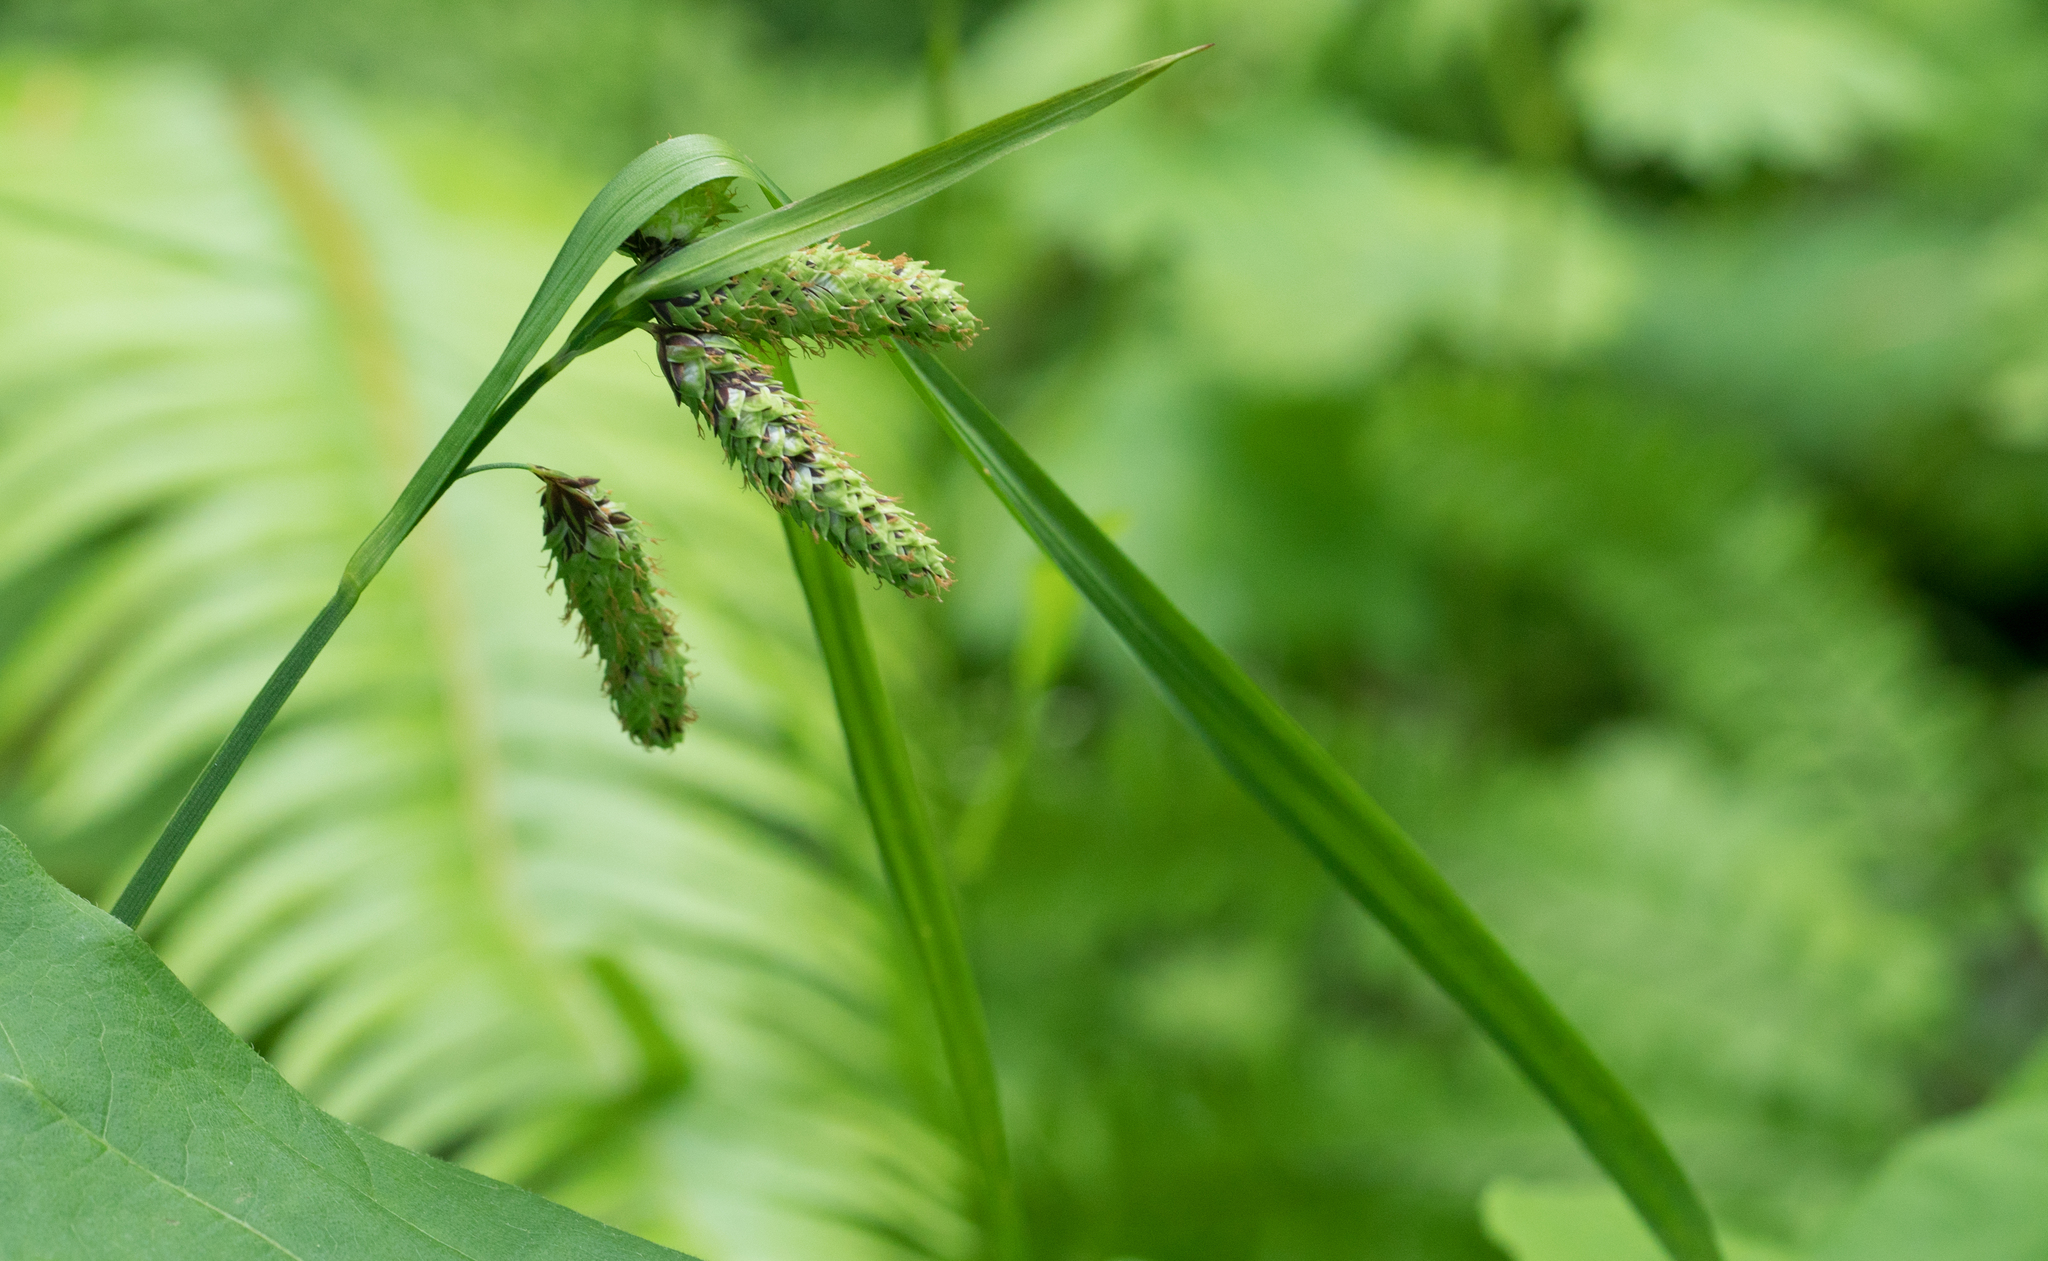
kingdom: Plantae
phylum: Tracheophyta
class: Liliopsida
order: Poales
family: Cyperaceae
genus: Carex
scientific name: Carex mertensii
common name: Mertens' sedge
